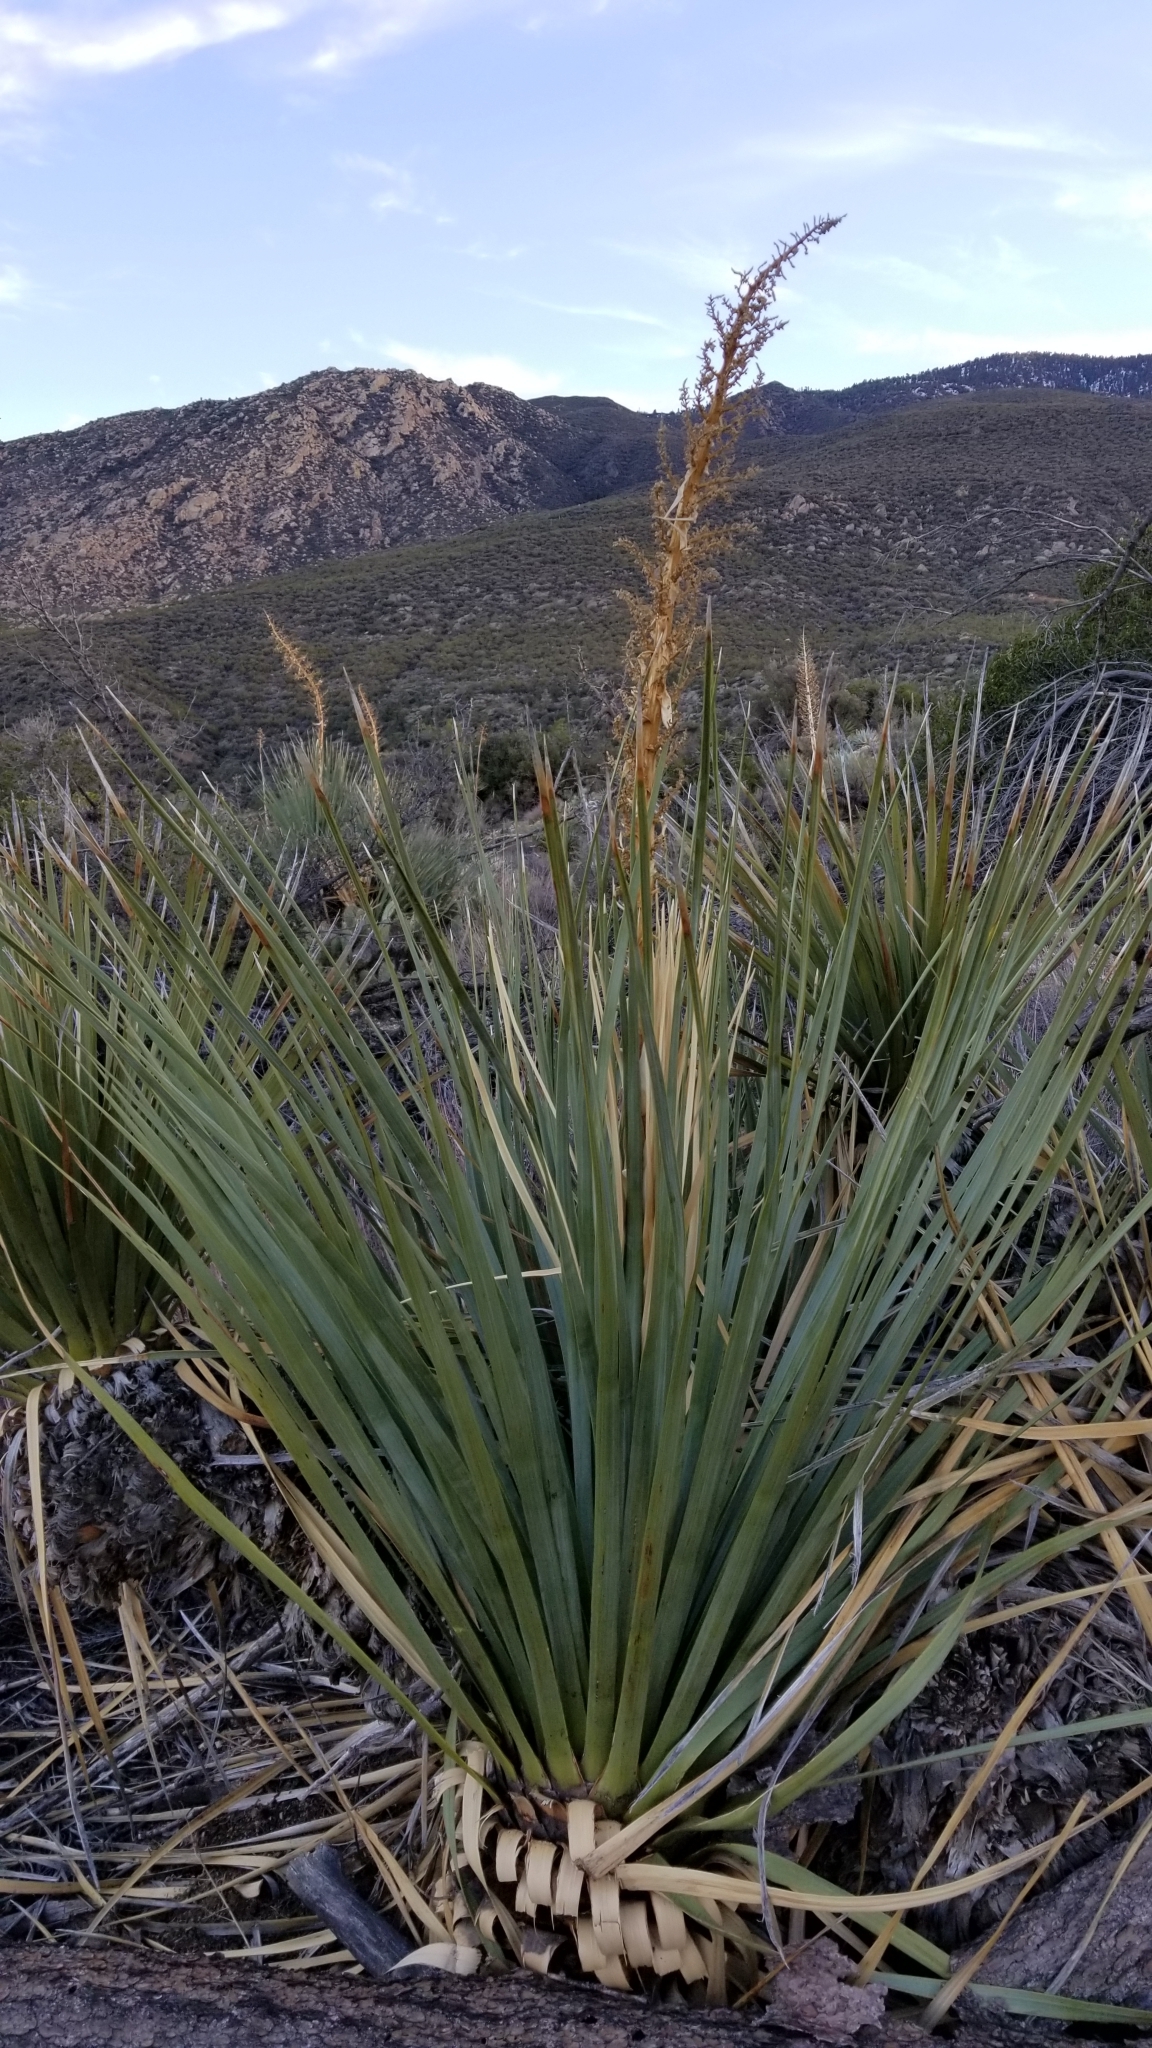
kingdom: Plantae
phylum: Tracheophyta
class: Liliopsida
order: Asparagales
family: Asparagaceae
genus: Nolina
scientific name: Nolina parryi
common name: Parry nolina
